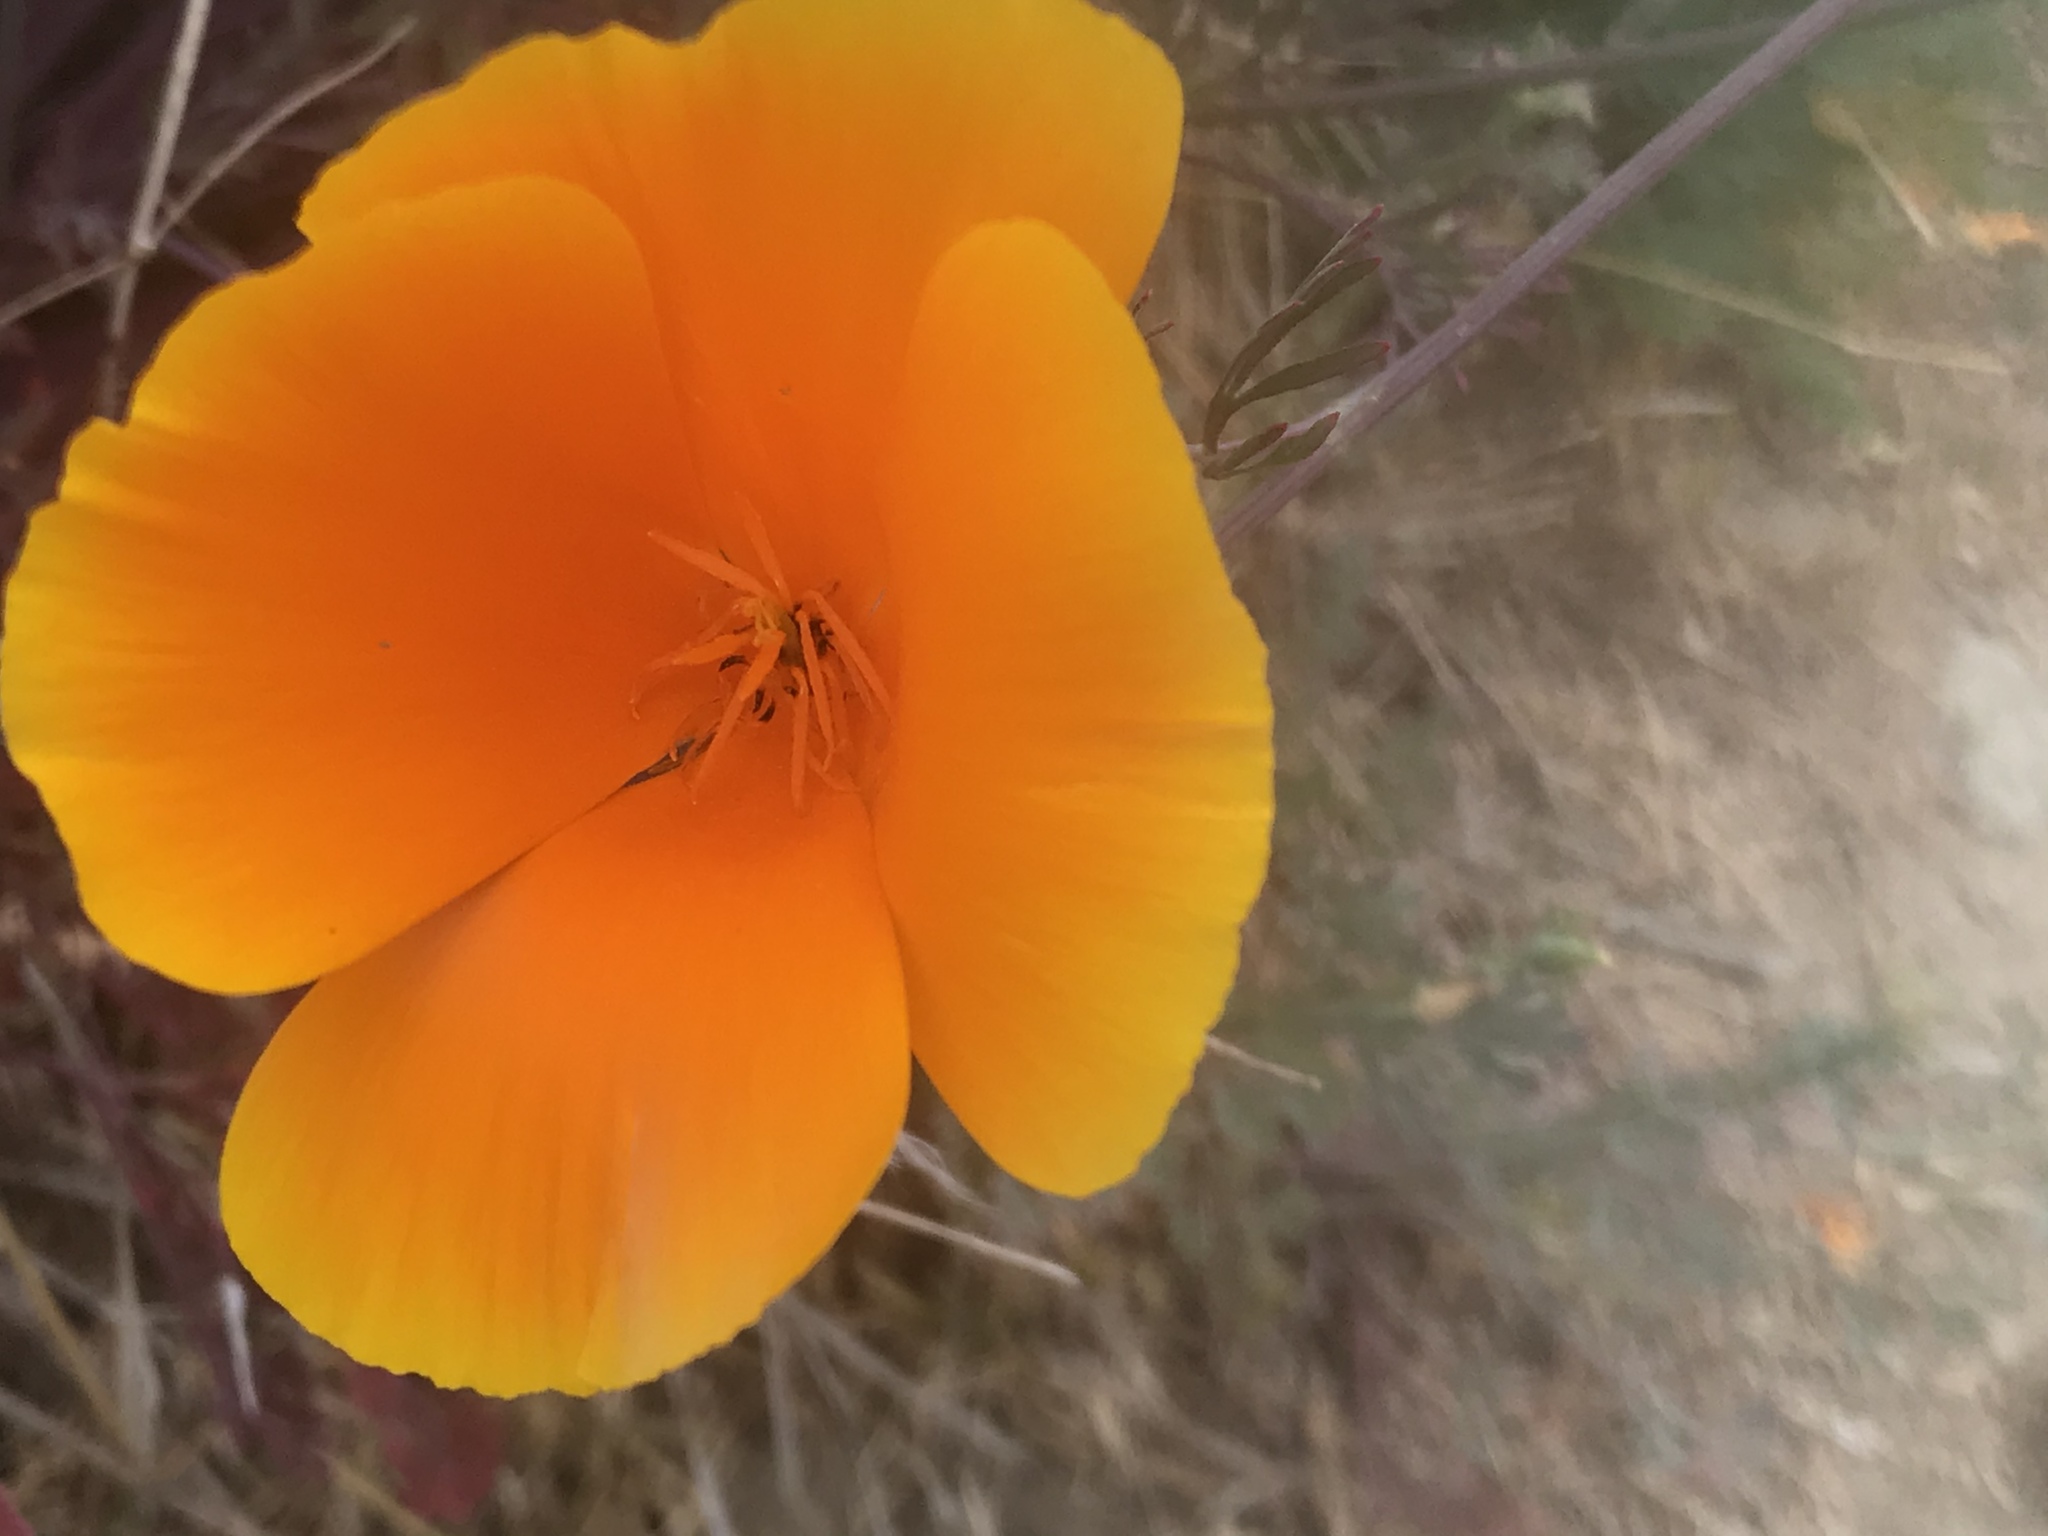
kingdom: Plantae
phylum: Tracheophyta
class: Magnoliopsida
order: Ranunculales
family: Papaveraceae
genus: Eschscholzia
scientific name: Eschscholzia californica
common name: California poppy
